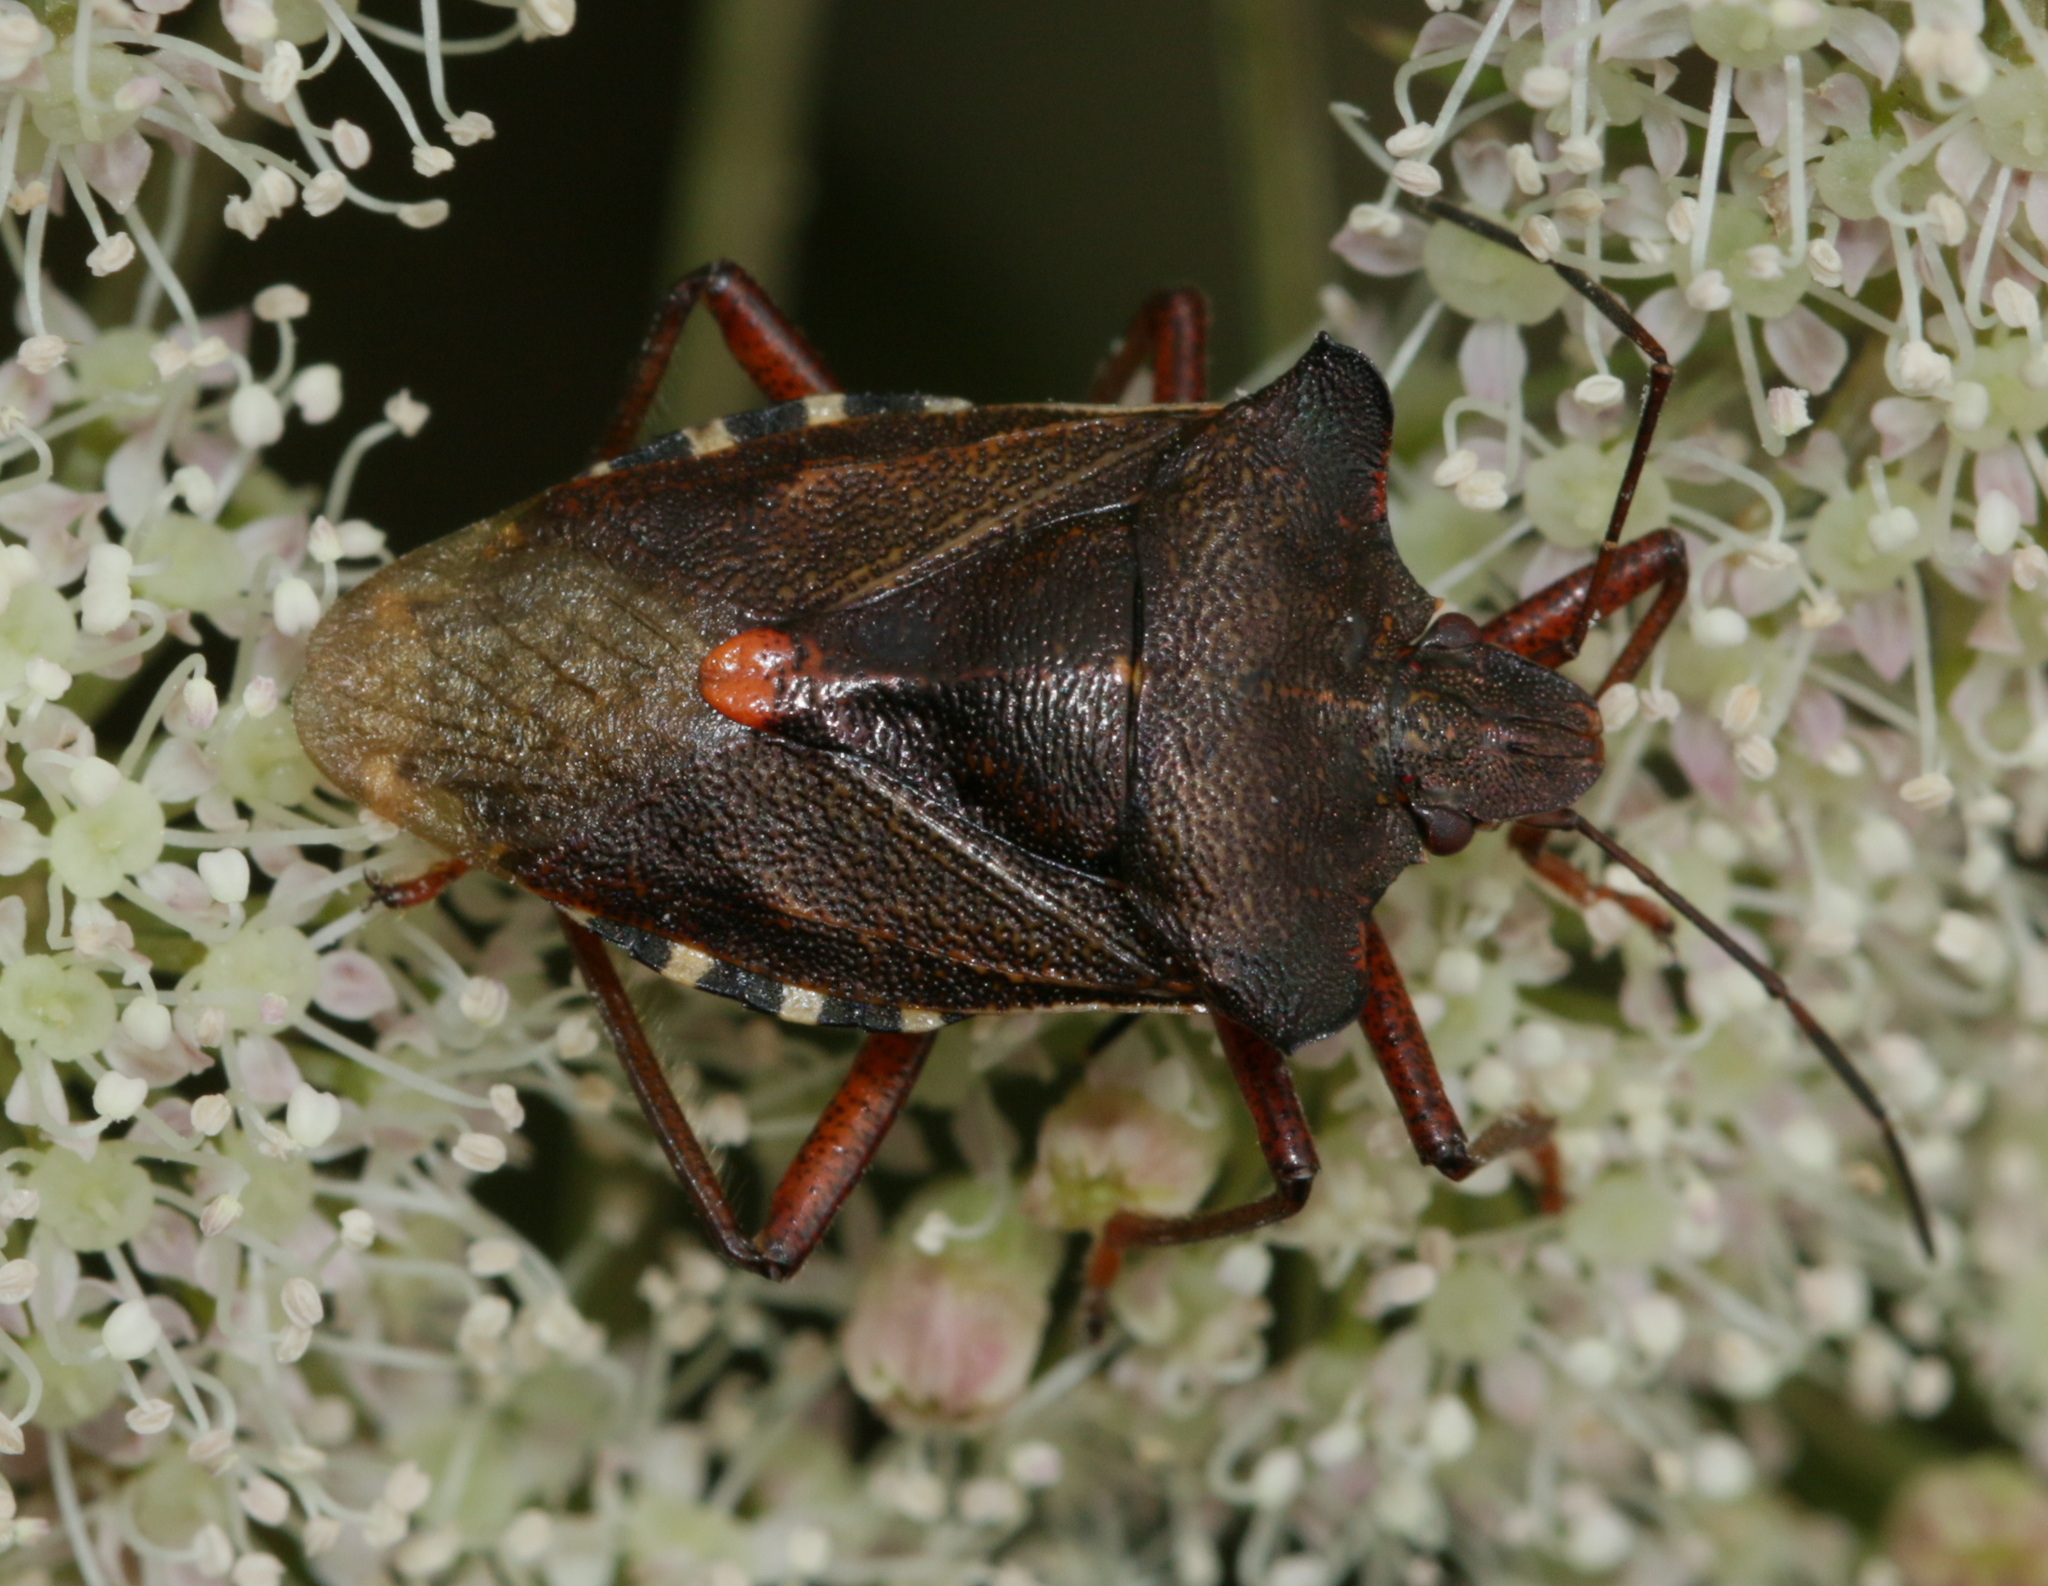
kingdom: Animalia
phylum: Arthropoda
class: Insecta
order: Hemiptera
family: Pentatomidae
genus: Pentatoma
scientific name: Pentatoma rufipes
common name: Forest bug
